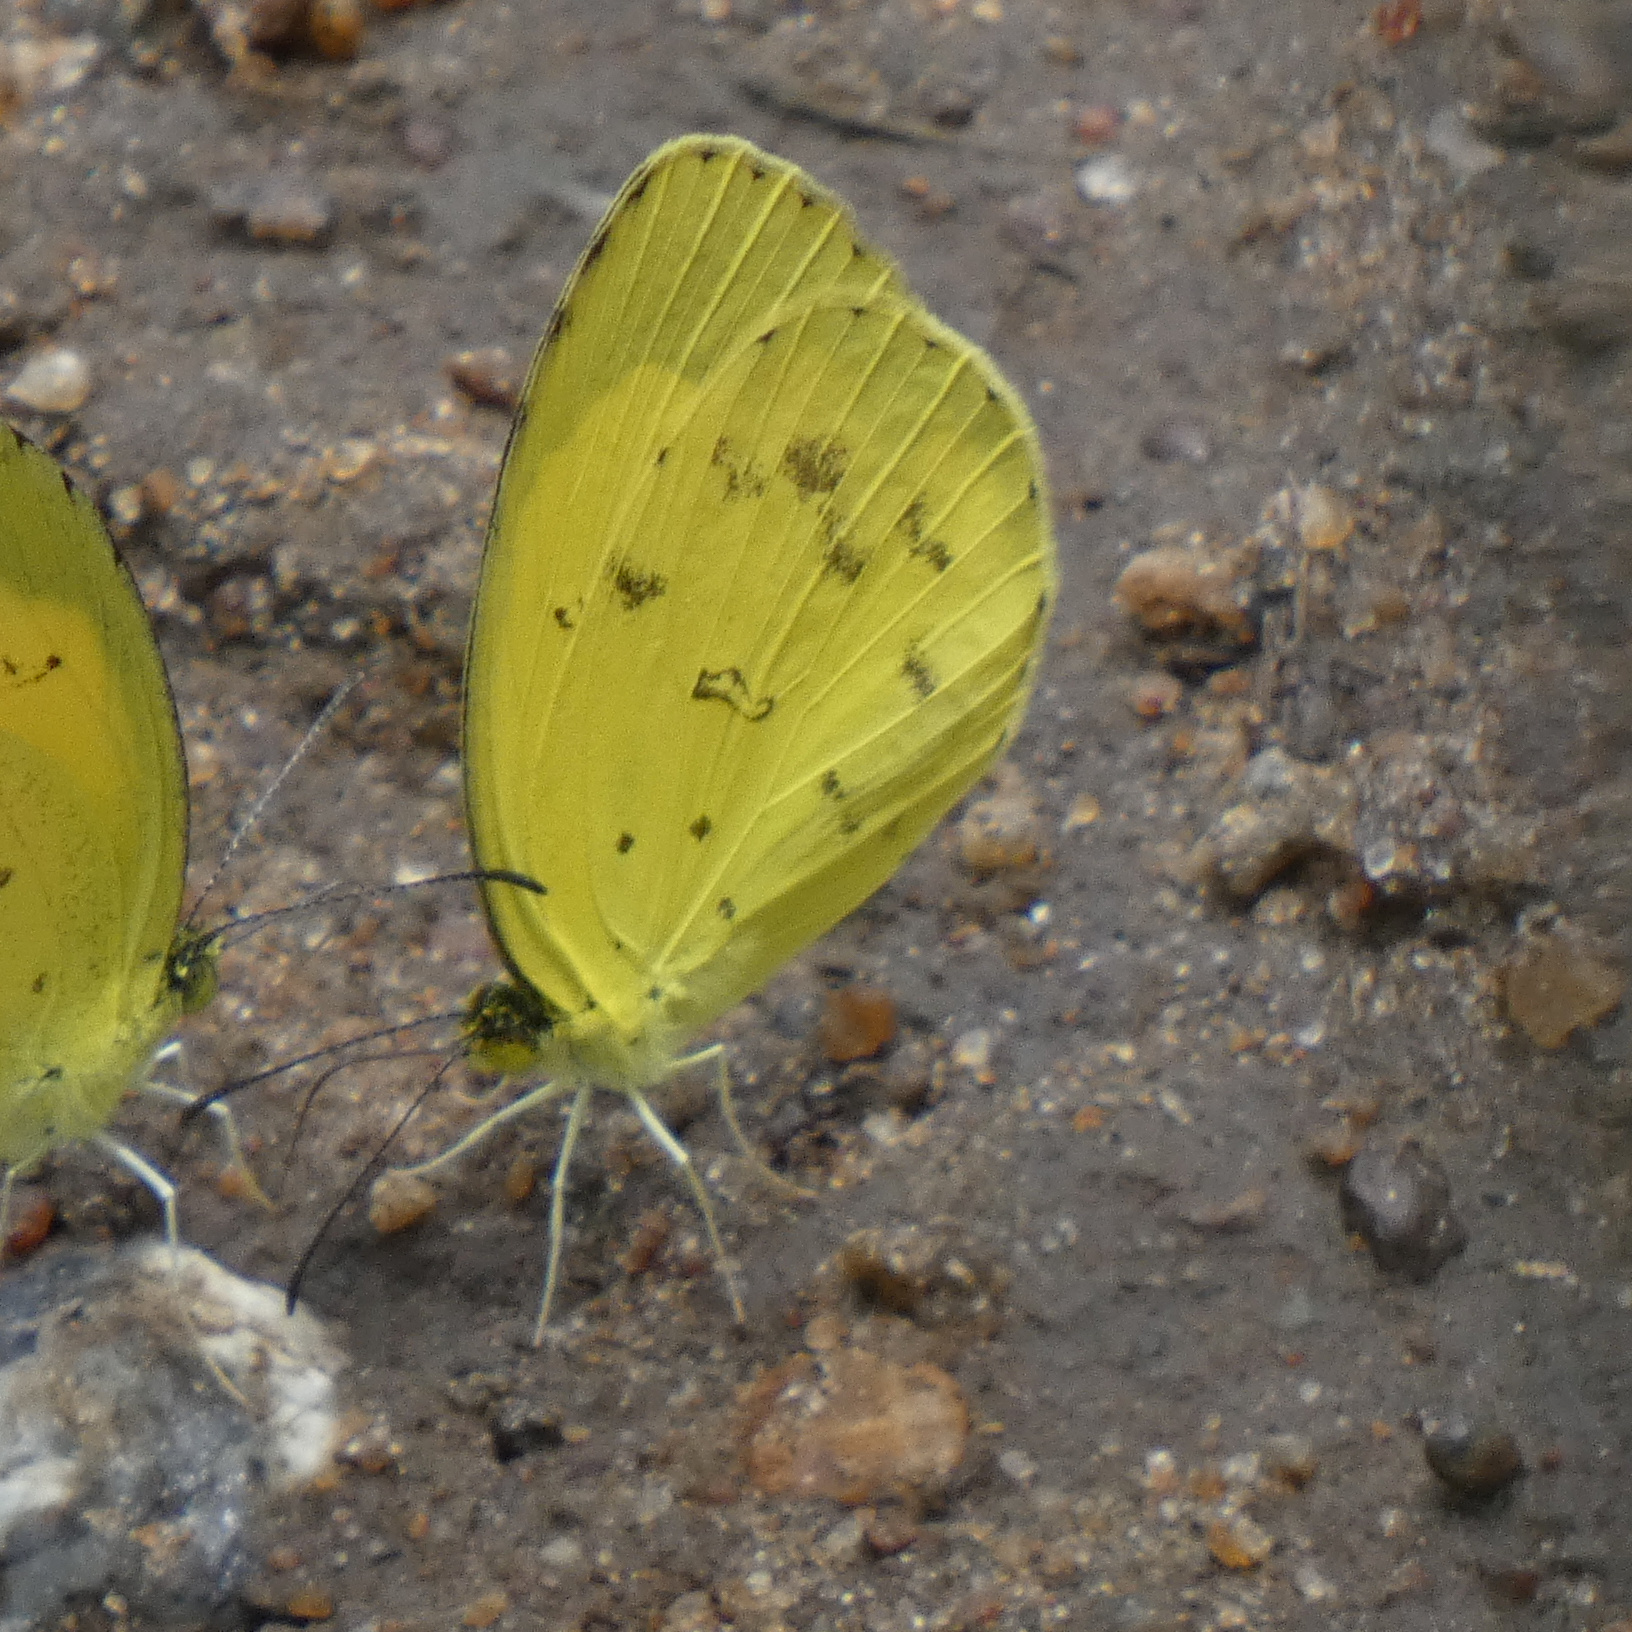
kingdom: Animalia
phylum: Arthropoda
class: Insecta
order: Lepidoptera
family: Pieridae
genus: Eurema
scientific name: Eurema hecabe
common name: Pale grass yellow
